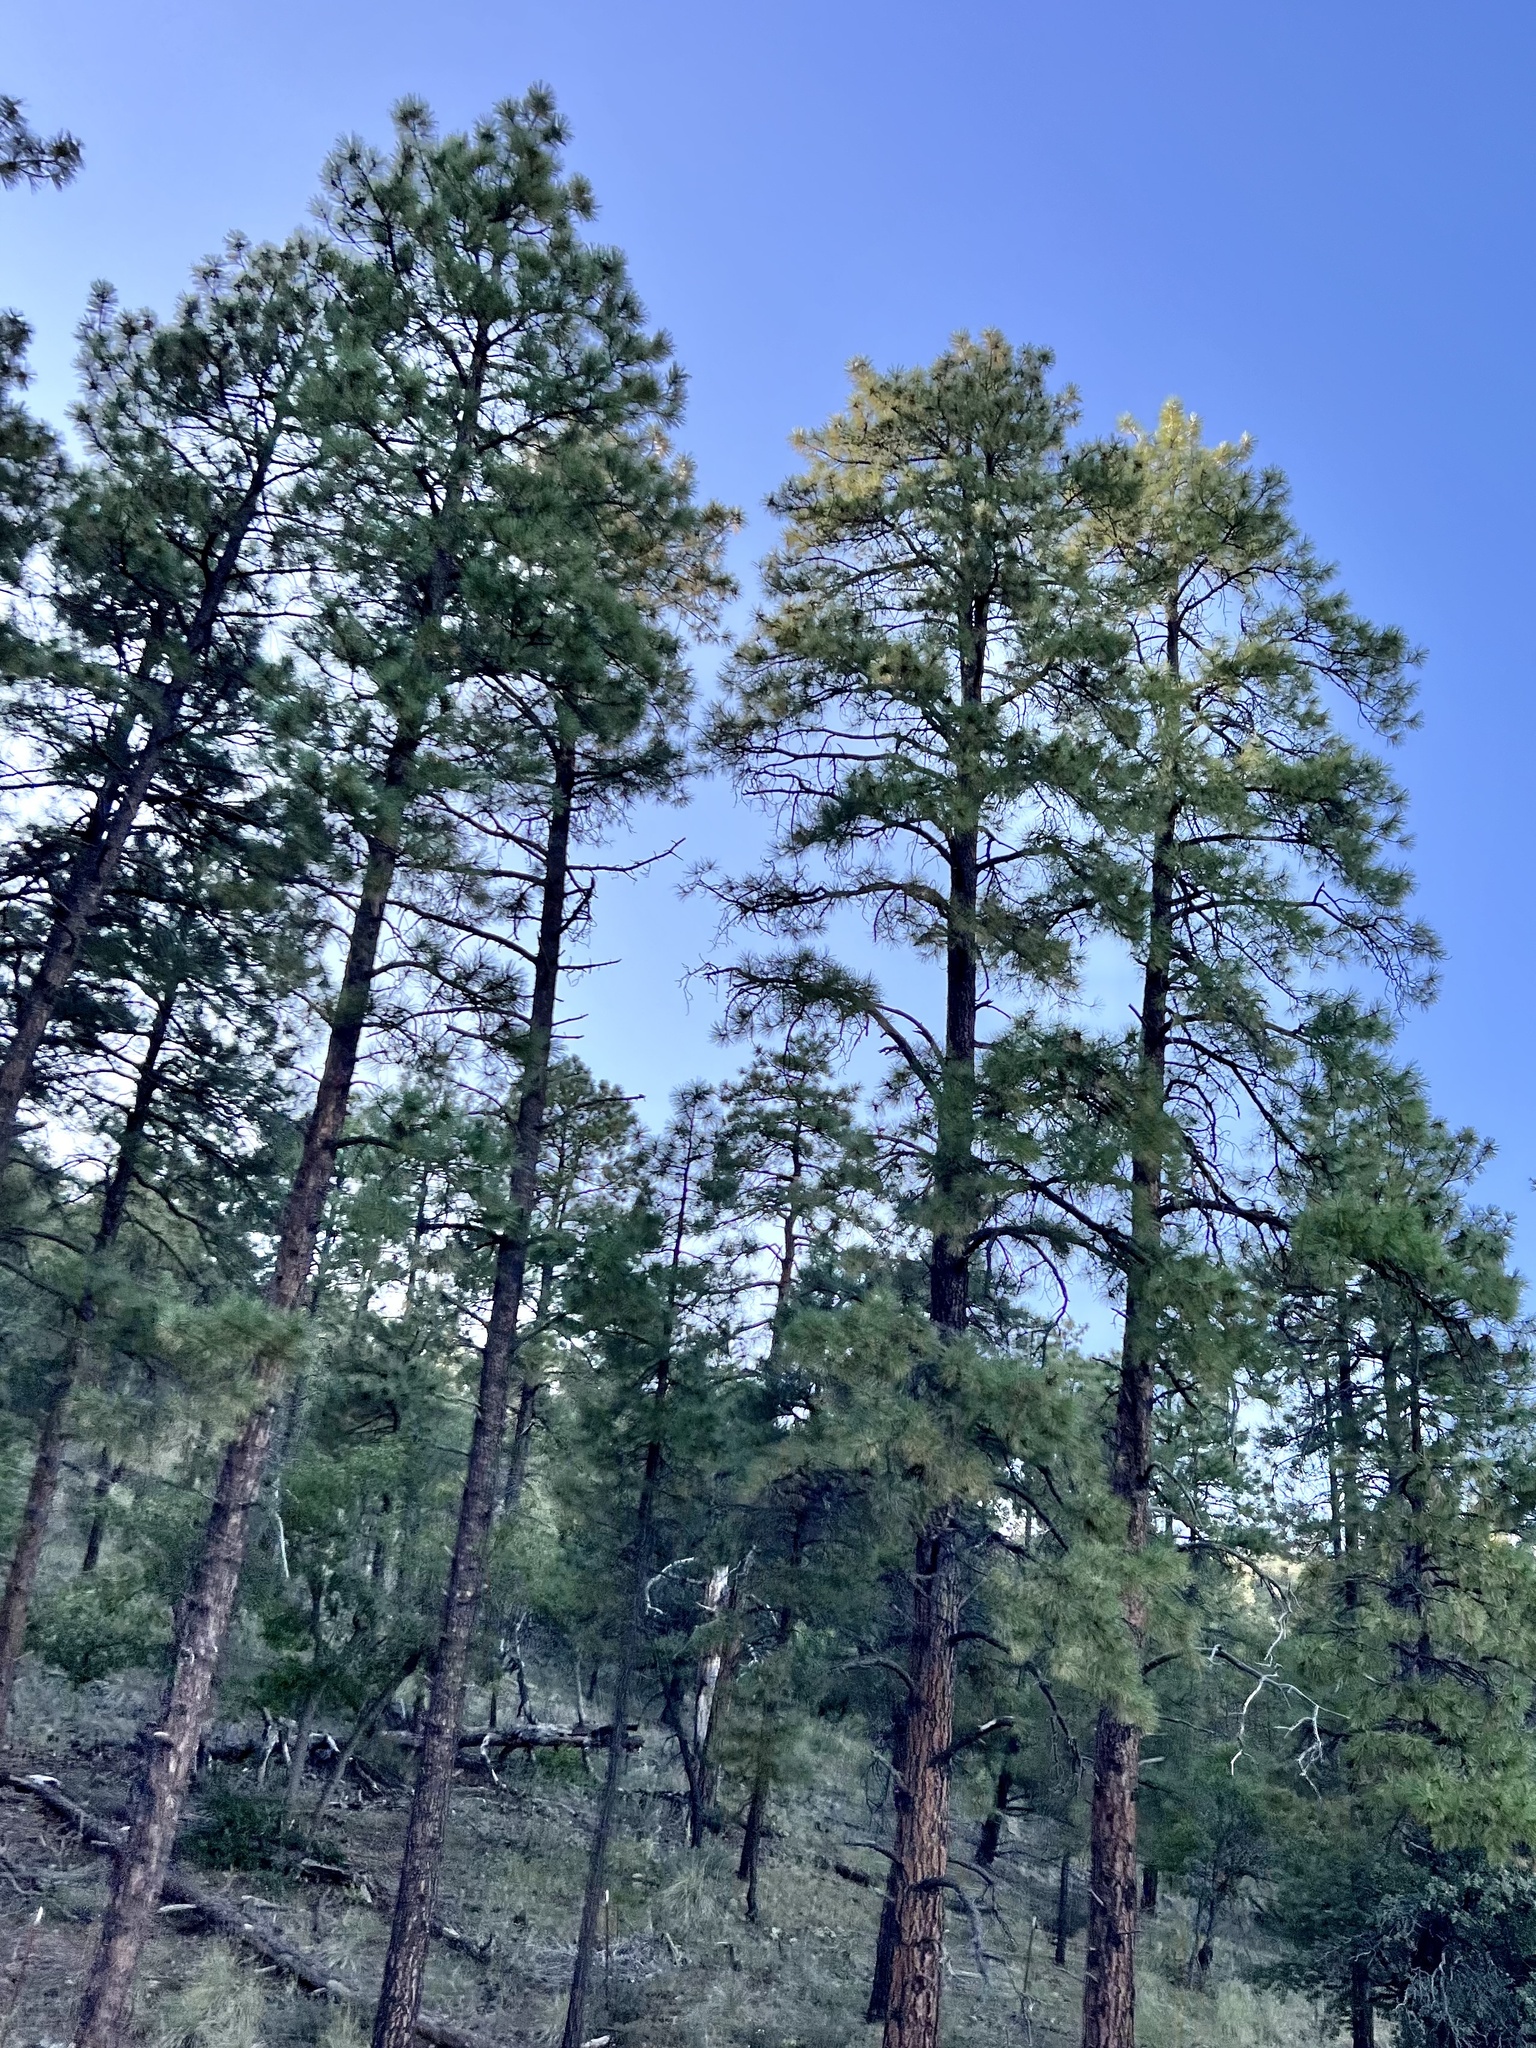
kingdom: Plantae
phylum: Tracheophyta
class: Pinopsida
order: Pinales
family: Pinaceae
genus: Pinus
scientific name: Pinus ponderosa
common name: Western yellow-pine
